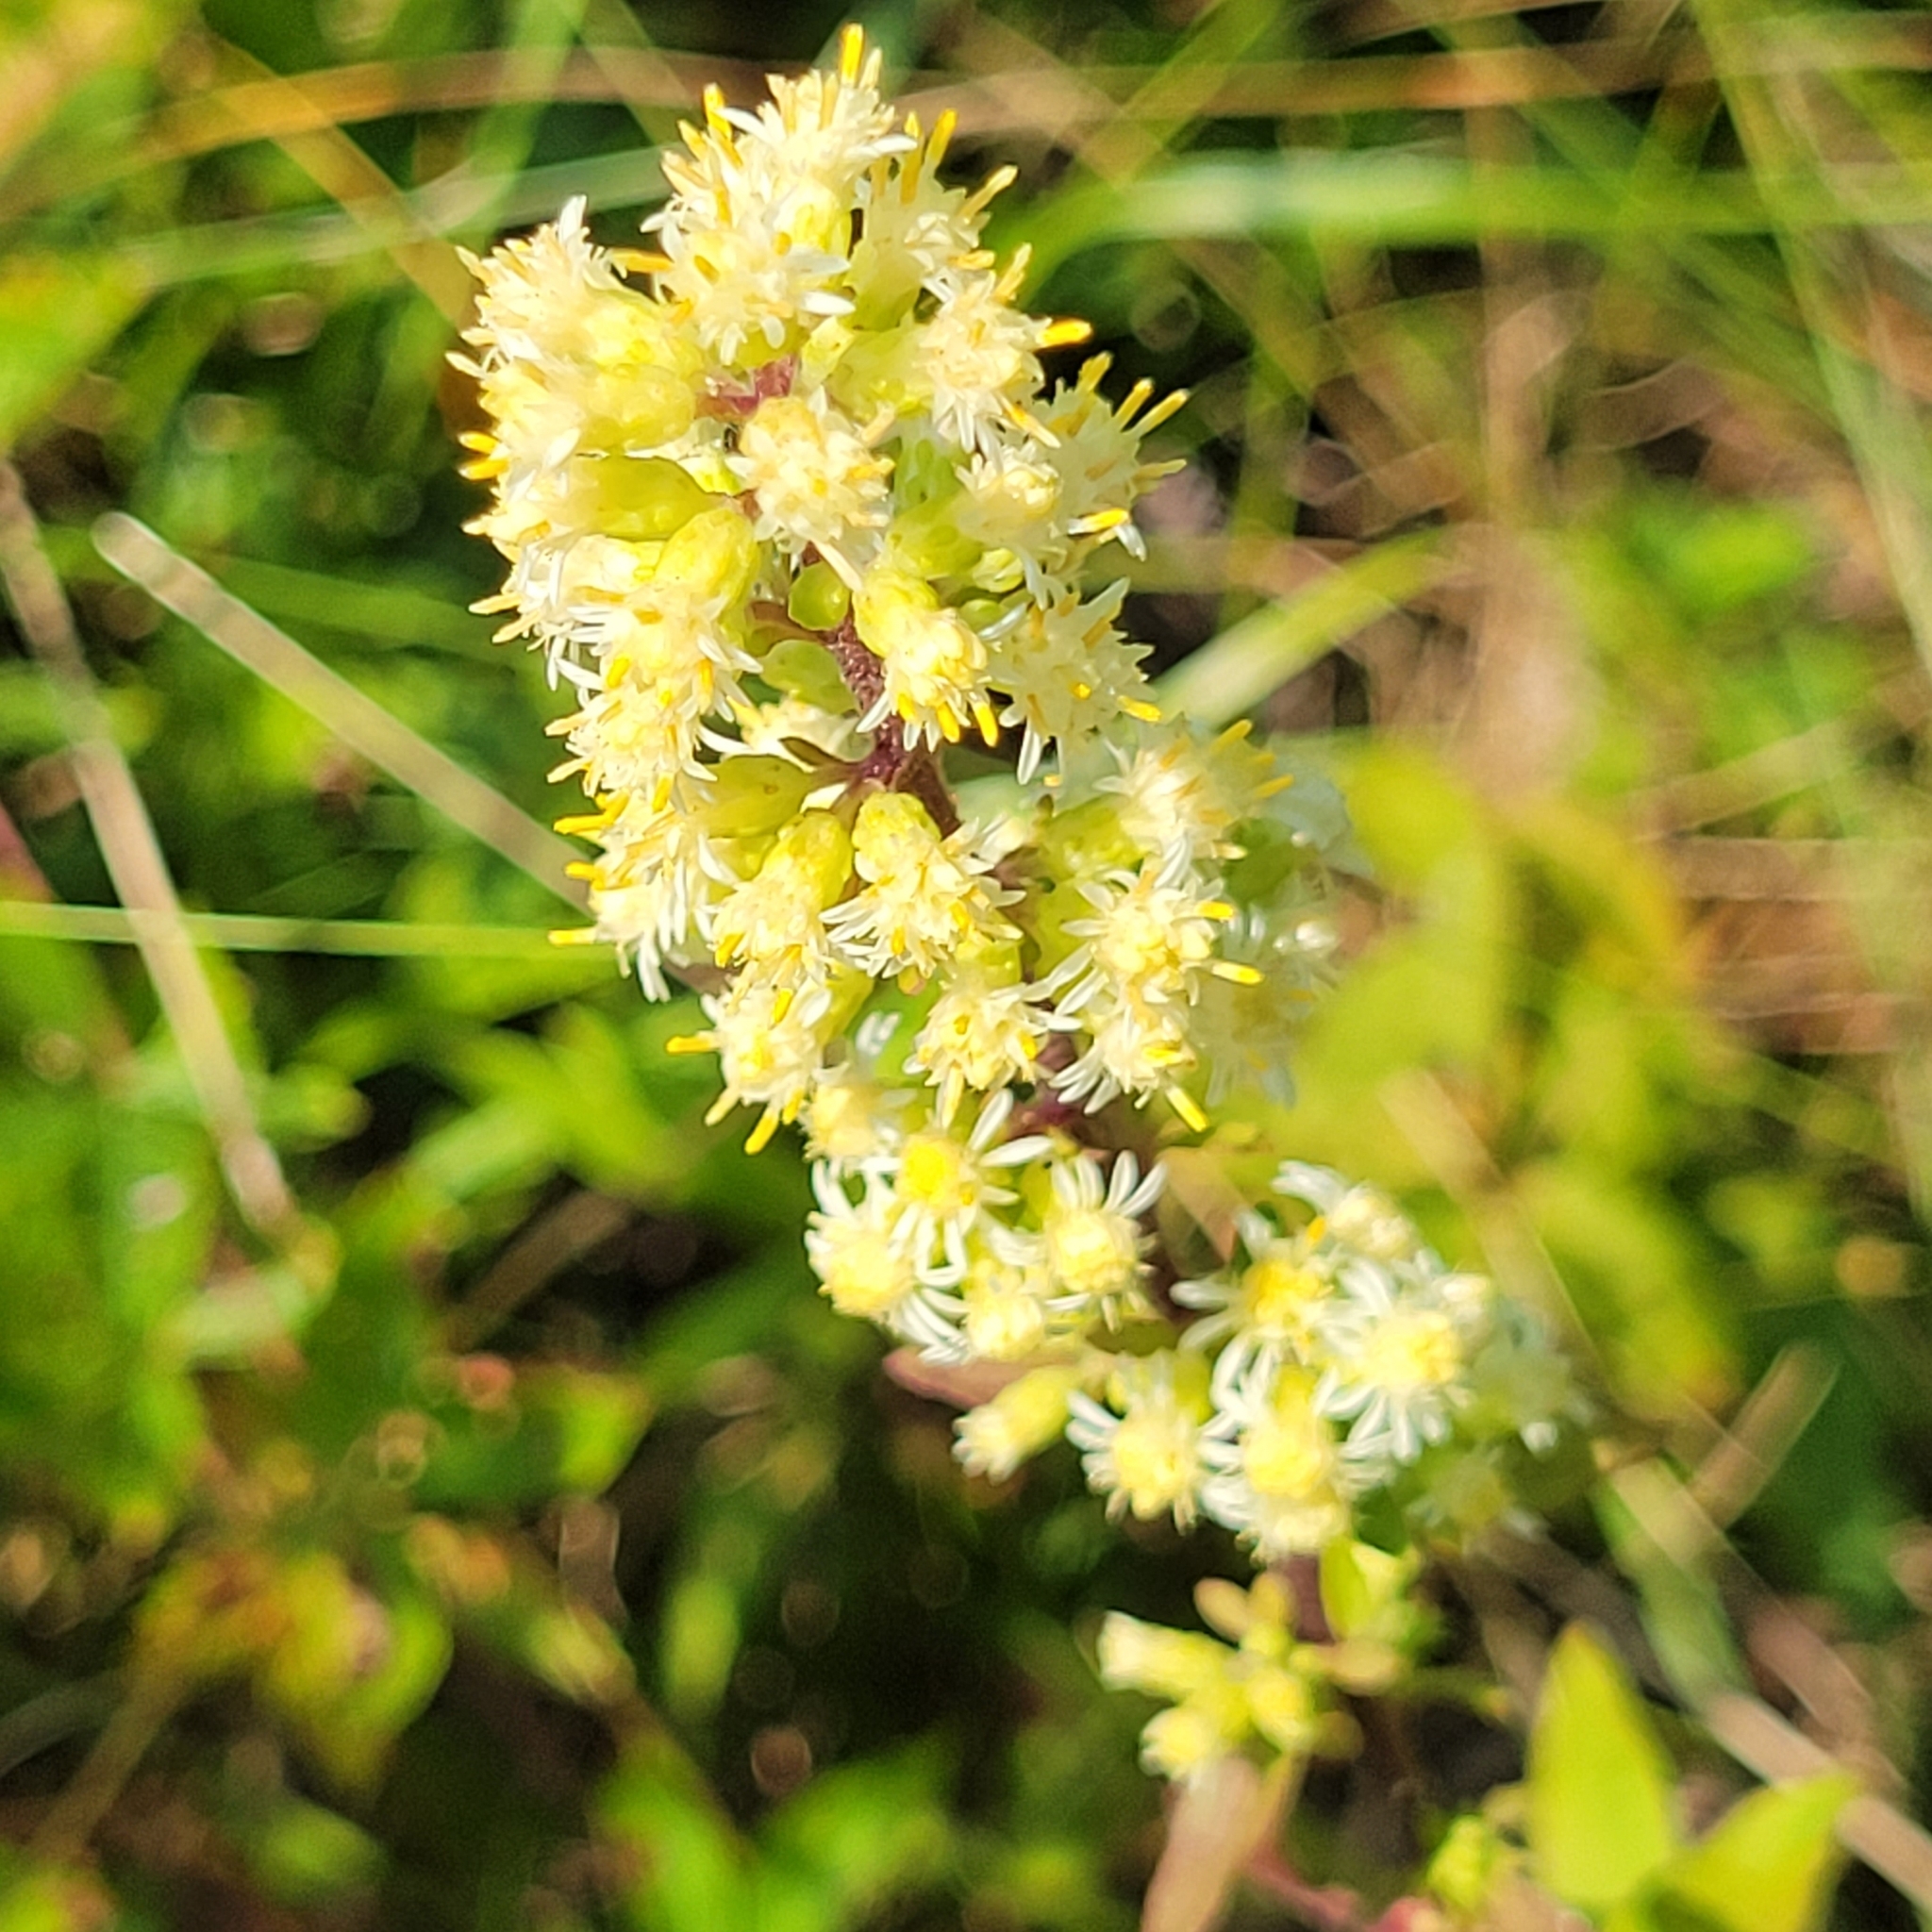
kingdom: Plantae
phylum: Tracheophyta
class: Magnoliopsida
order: Asterales
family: Asteraceae
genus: Solidago
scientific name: Solidago bicolor
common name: Silverrod
